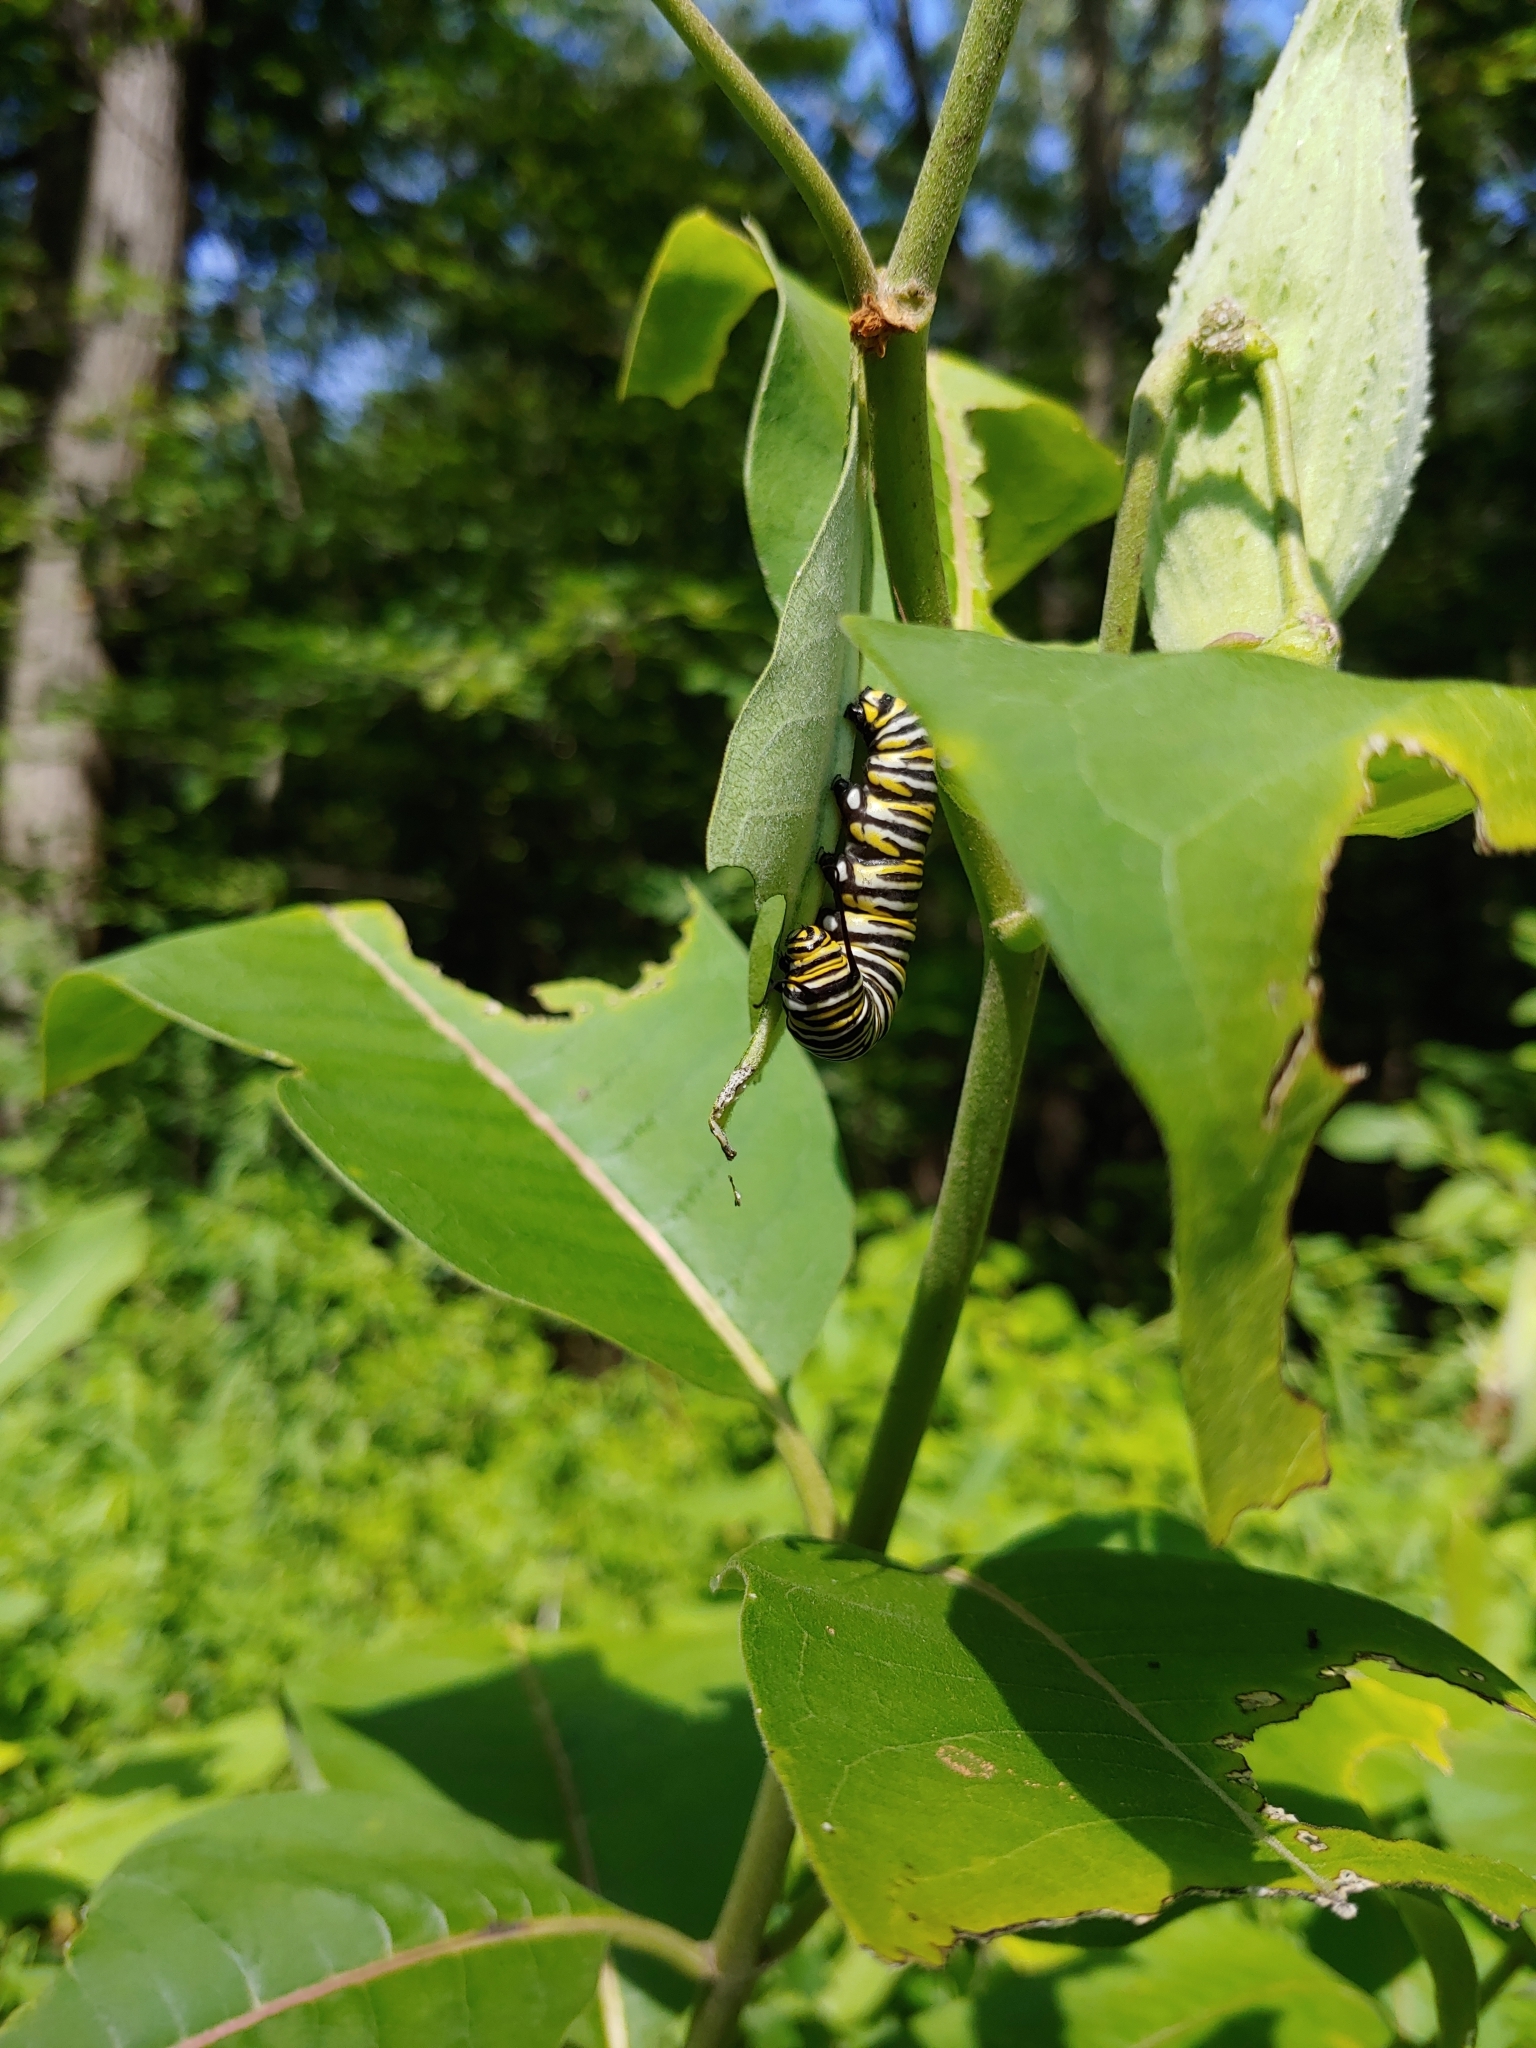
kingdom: Animalia
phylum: Arthropoda
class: Insecta
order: Lepidoptera
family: Nymphalidae
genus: Danaus
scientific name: Danaus plexippus
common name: Monarch
